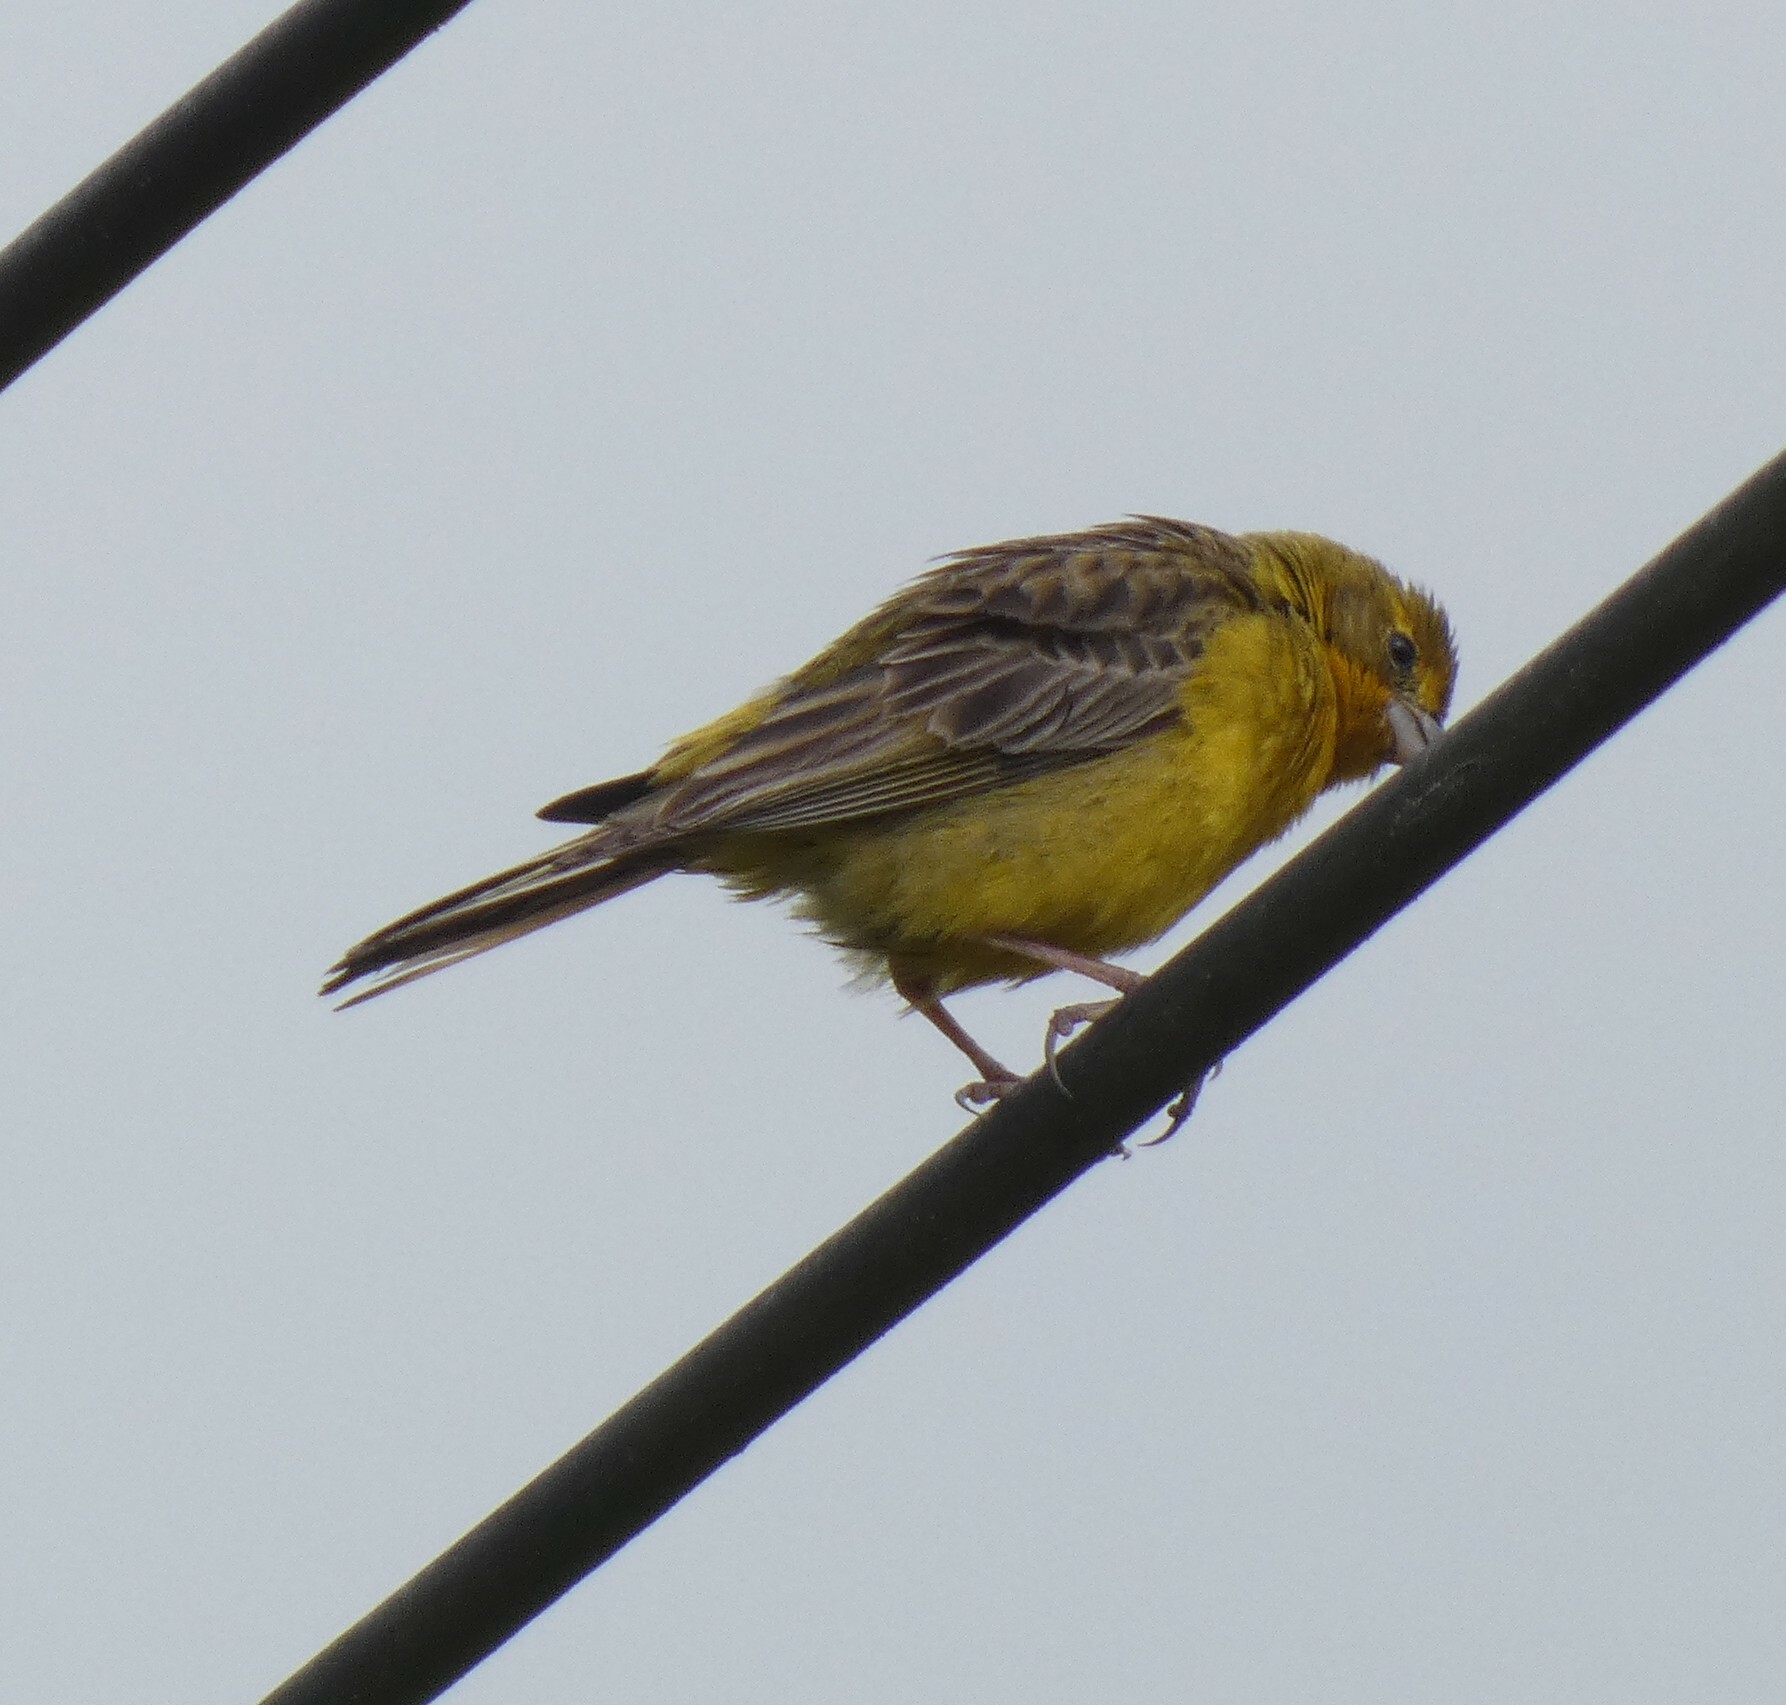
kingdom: Animalia
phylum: Chordata
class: Aves
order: Passeriformes
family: Thraupidae
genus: Sicalis
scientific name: Sicalis luteola
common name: Grassland yellow-finch
